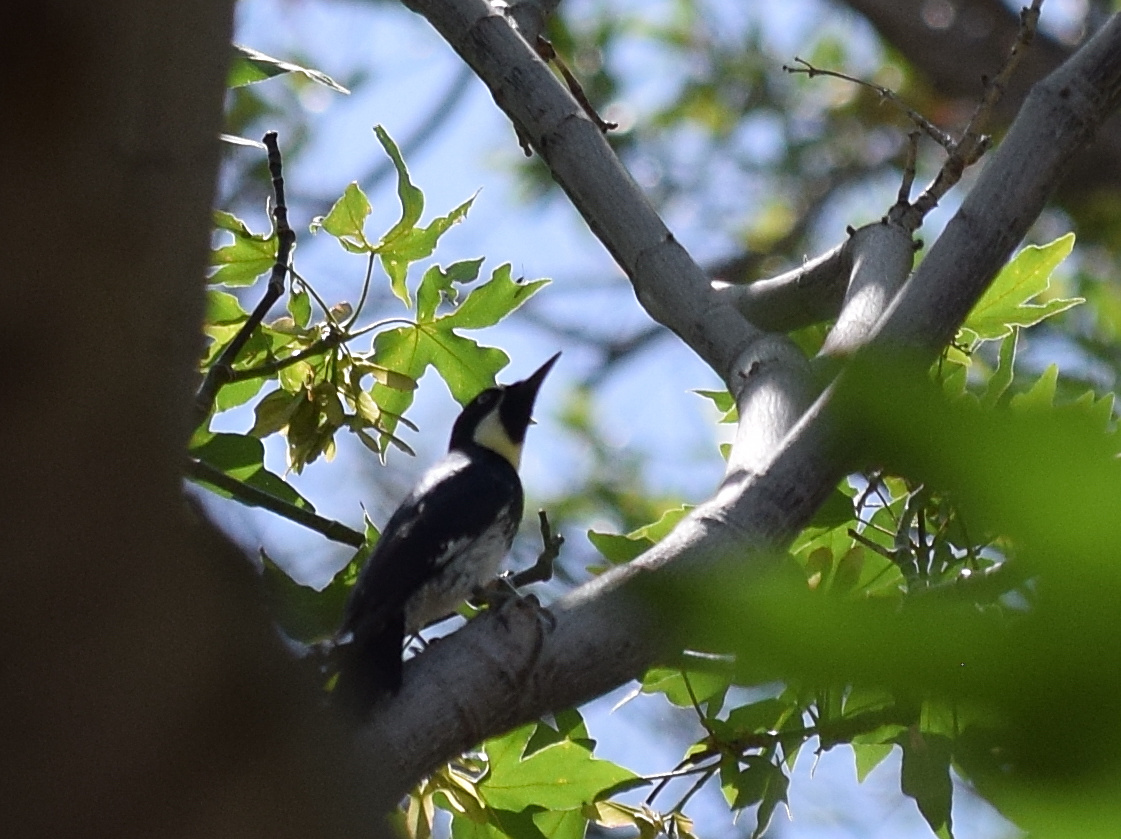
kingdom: Animalia
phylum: Chordata
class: Aves
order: Piciformes
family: Picidae
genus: Melanerpes
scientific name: Melanerpes formicivorus
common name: Acorn woodpecker
